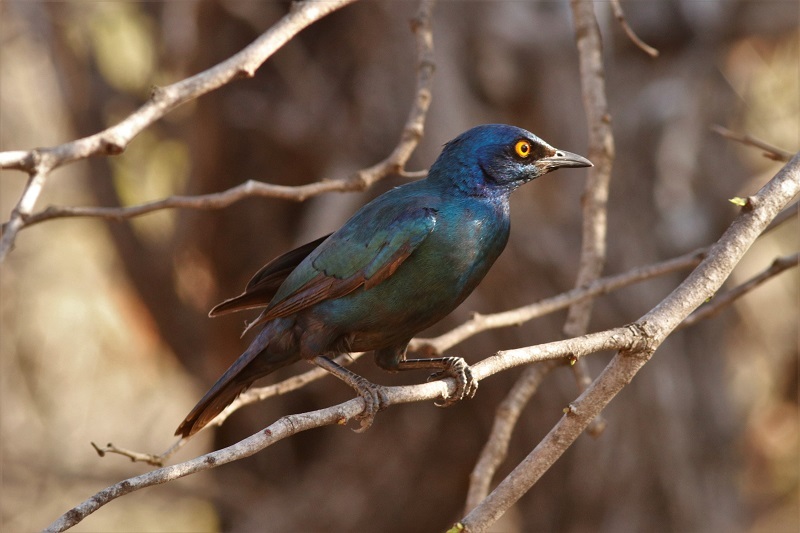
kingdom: Animalia
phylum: Chordata
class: Aves
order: Passeriformes
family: Sturnidae
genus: Lamprotornis
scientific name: Lamprotornis nitens
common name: Cape starling
